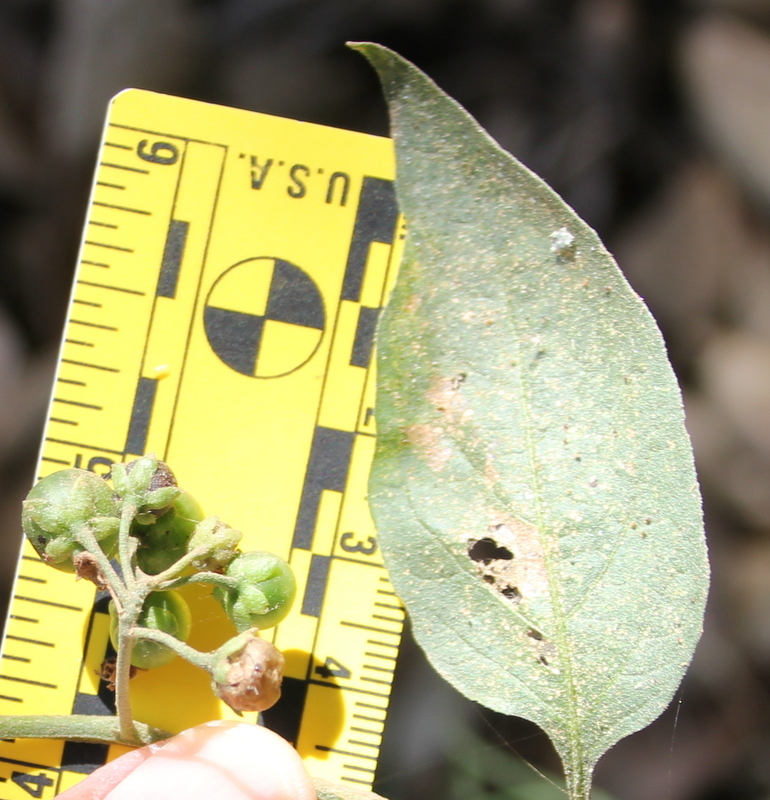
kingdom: Plantae
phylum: Tracheophyta
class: Magnoliopsida
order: Solanales
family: Solanaceae
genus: Solanum
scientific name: Solanum douglasii
